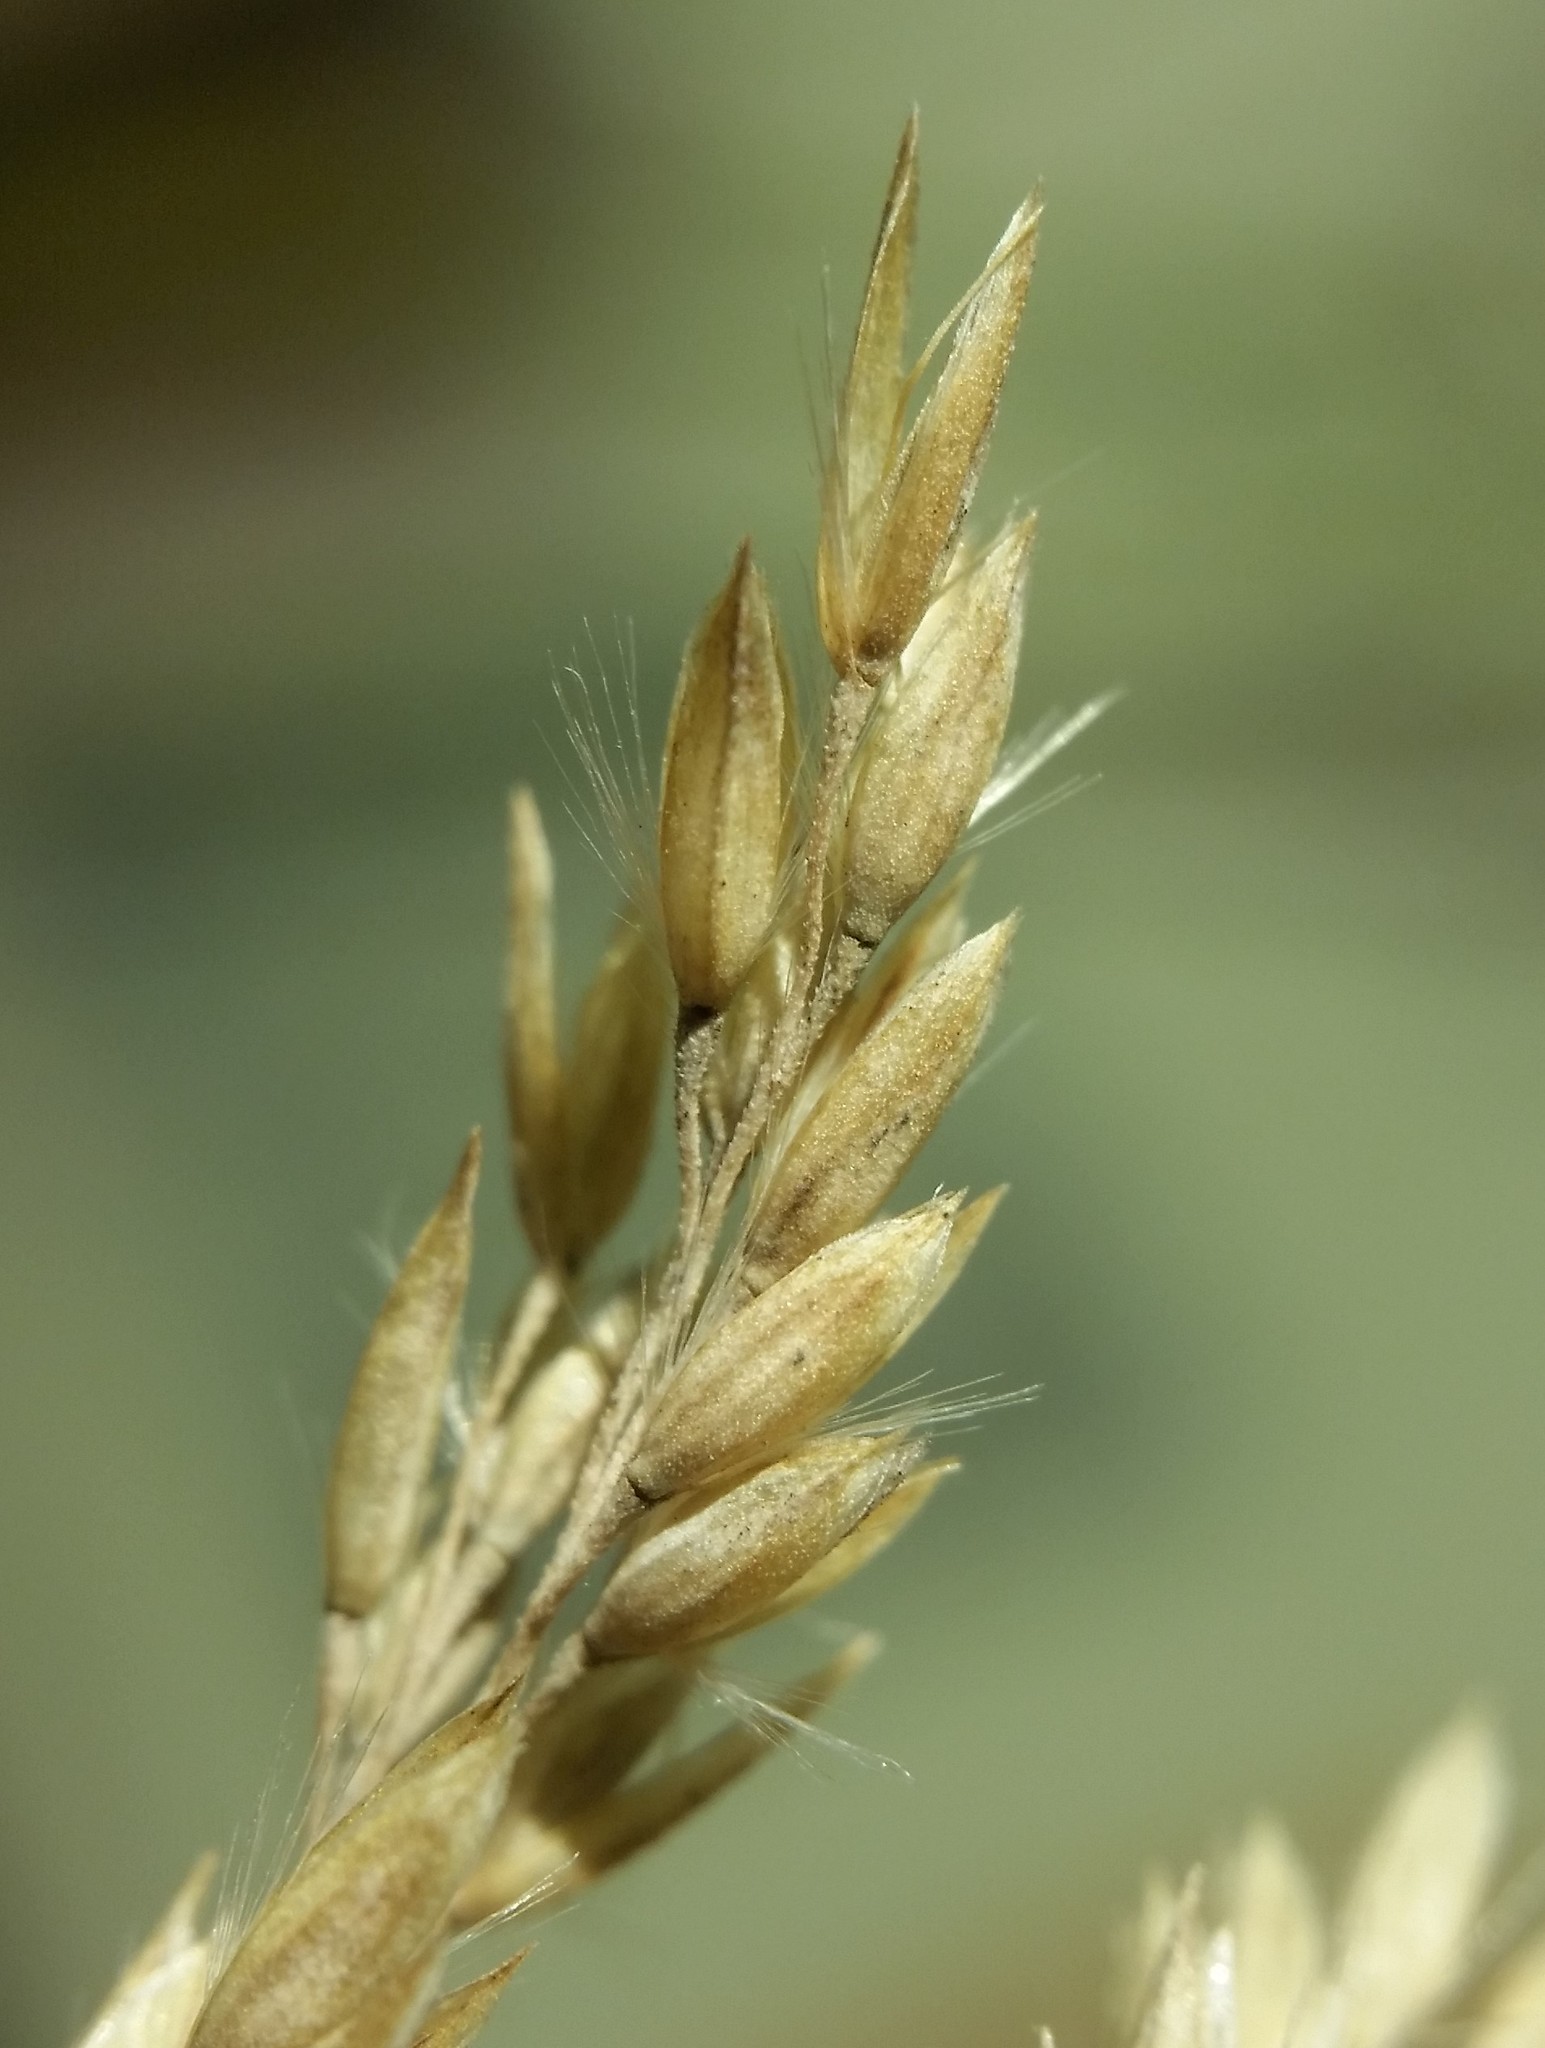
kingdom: Plantae
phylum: Tracheophyta
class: Liliopsida
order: Poales
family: Poaceae
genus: Calamagrostis
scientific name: Calamagrostis inexpansa
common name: Northern reedgrass
